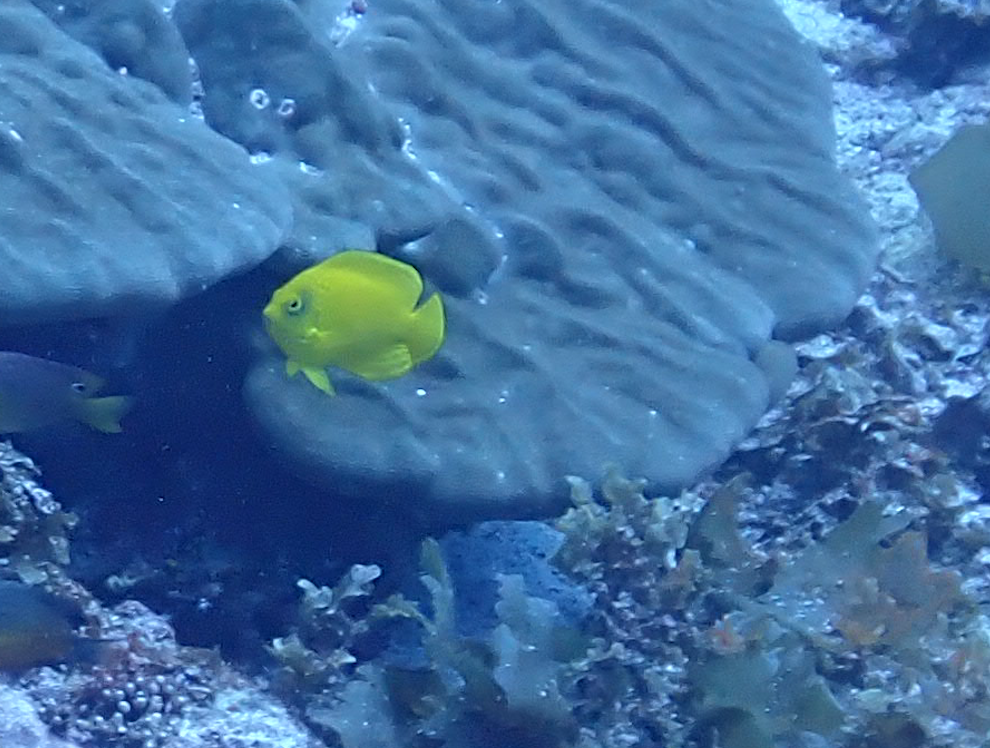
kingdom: Animalia
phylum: Chordata
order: Perciformes
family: Pomacanthidae
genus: Centropyge
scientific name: Centropyge heraldi
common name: Herald's angelfish
